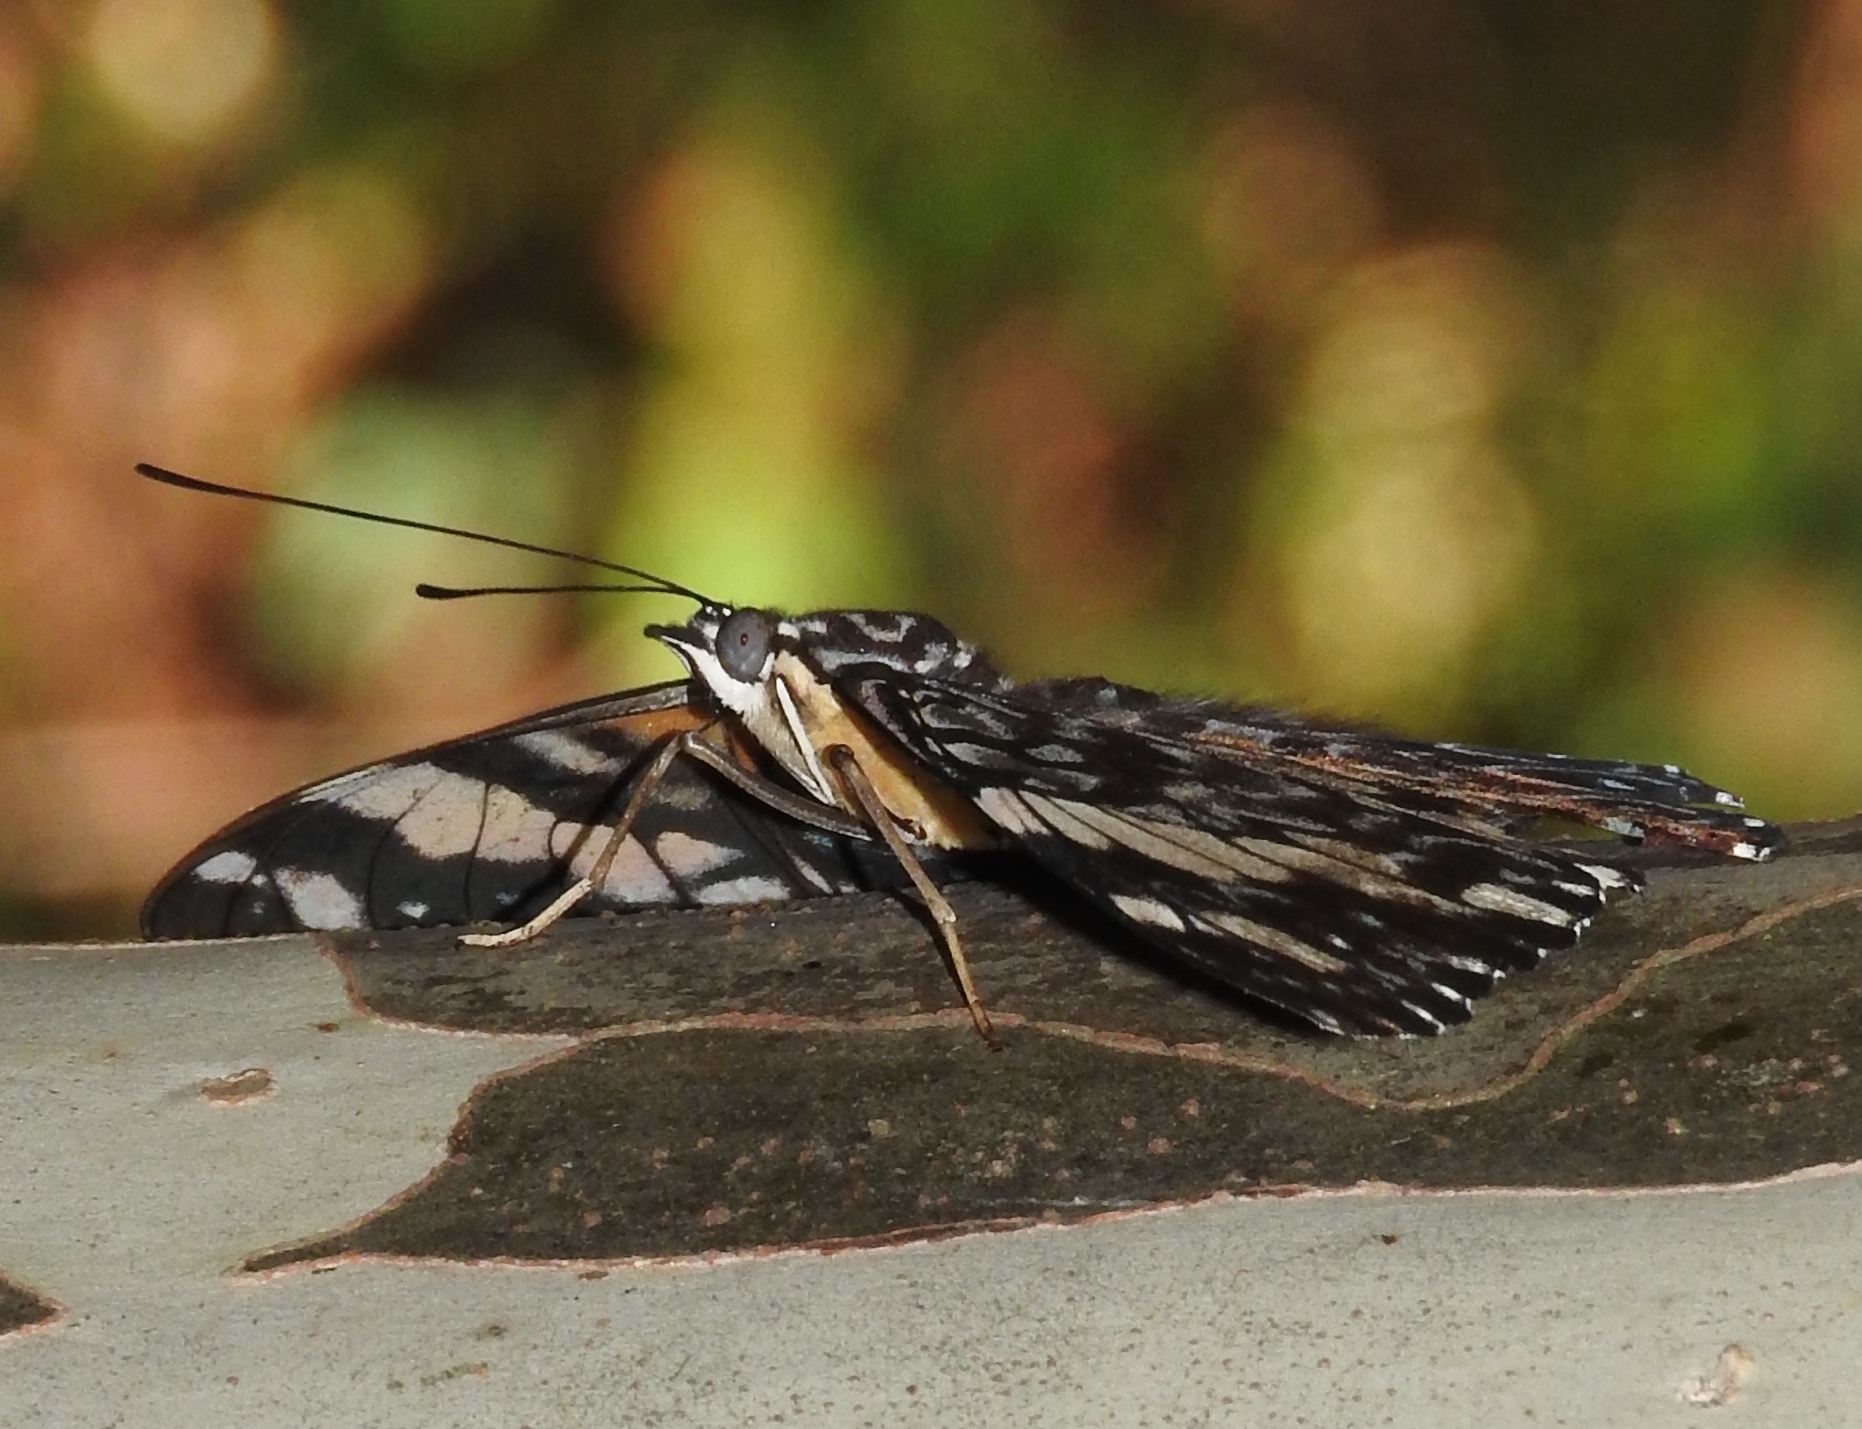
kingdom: Animalia
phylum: Arthropoda
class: Insecta
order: Lepidoptera
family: Nymphalidae
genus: Hamadryas
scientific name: Hamadryas amphinome
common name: Red cracker
